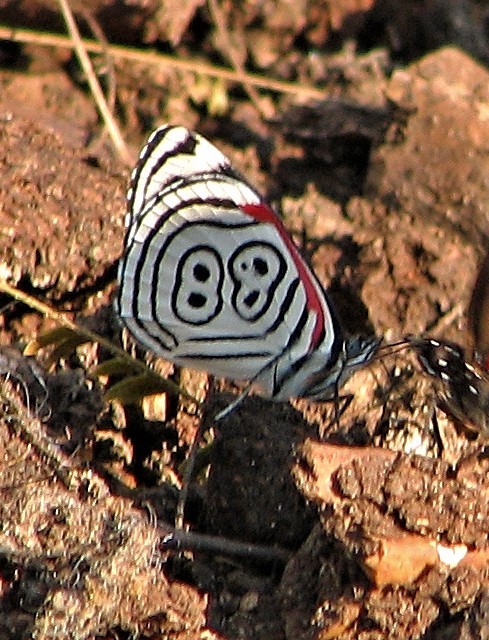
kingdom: Animalia
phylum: Arthropoda
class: Insecta
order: Lepidoptera
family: Nymphalidae
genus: Diaethria
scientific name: Diaethria clymena
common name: Widespread eighty-eight
